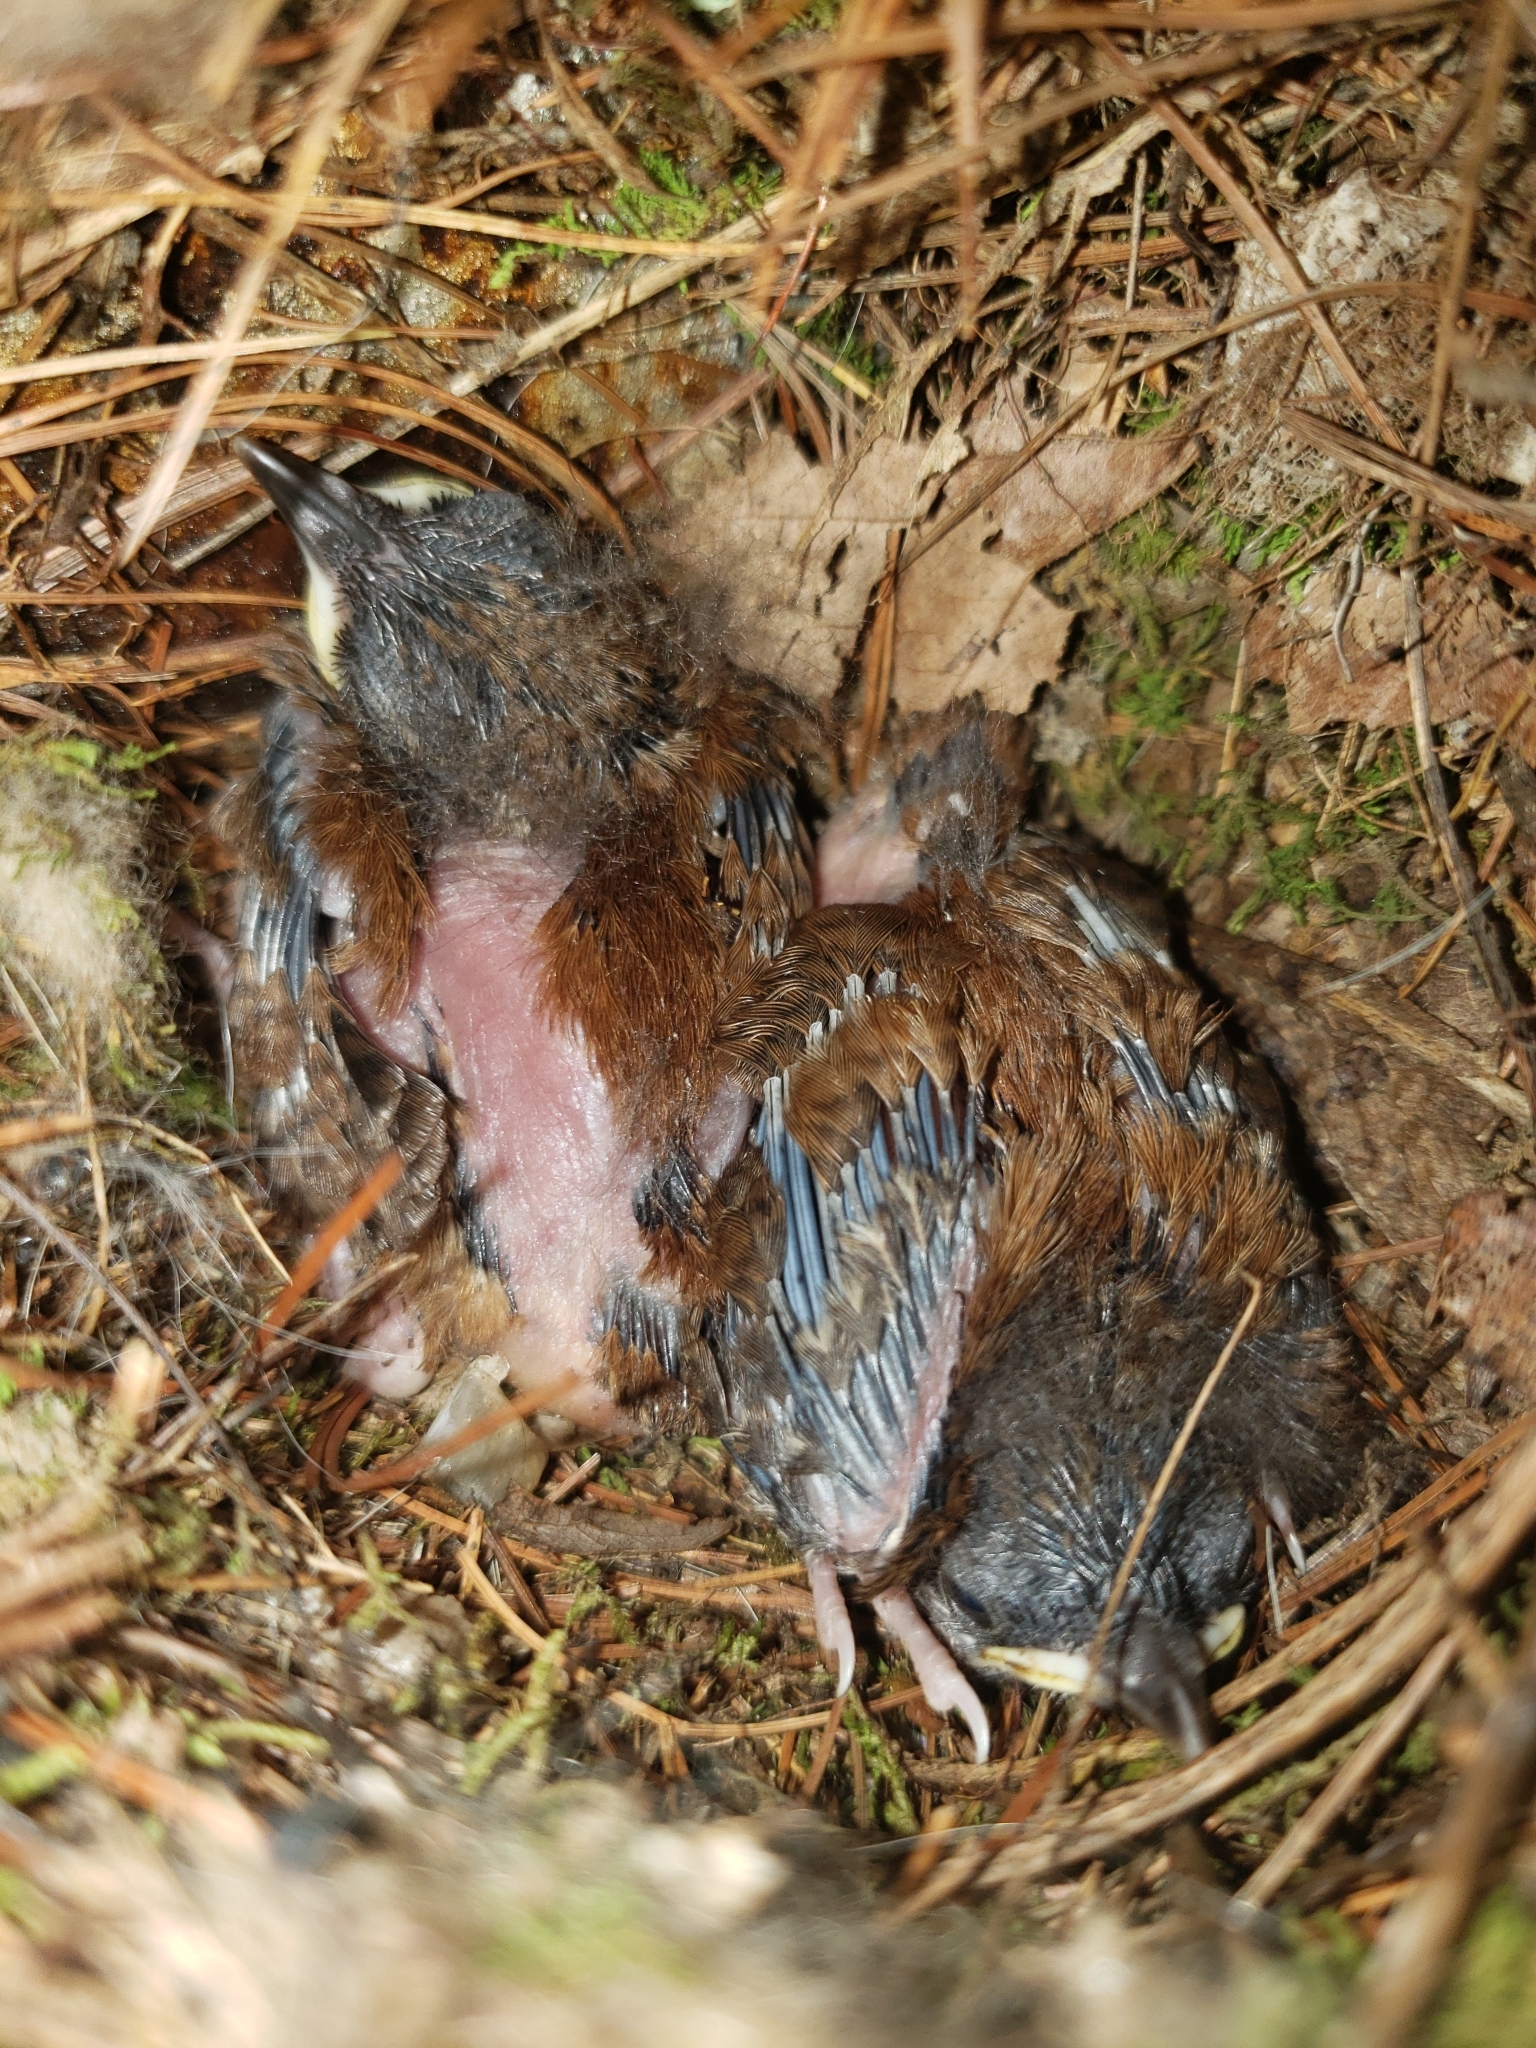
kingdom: Animalia
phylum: Chordata
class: Aves
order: Passeriformes
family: Troglodytidae
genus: Thryothorus
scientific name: Thryothorus ludovicianus
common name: Carolina wren
